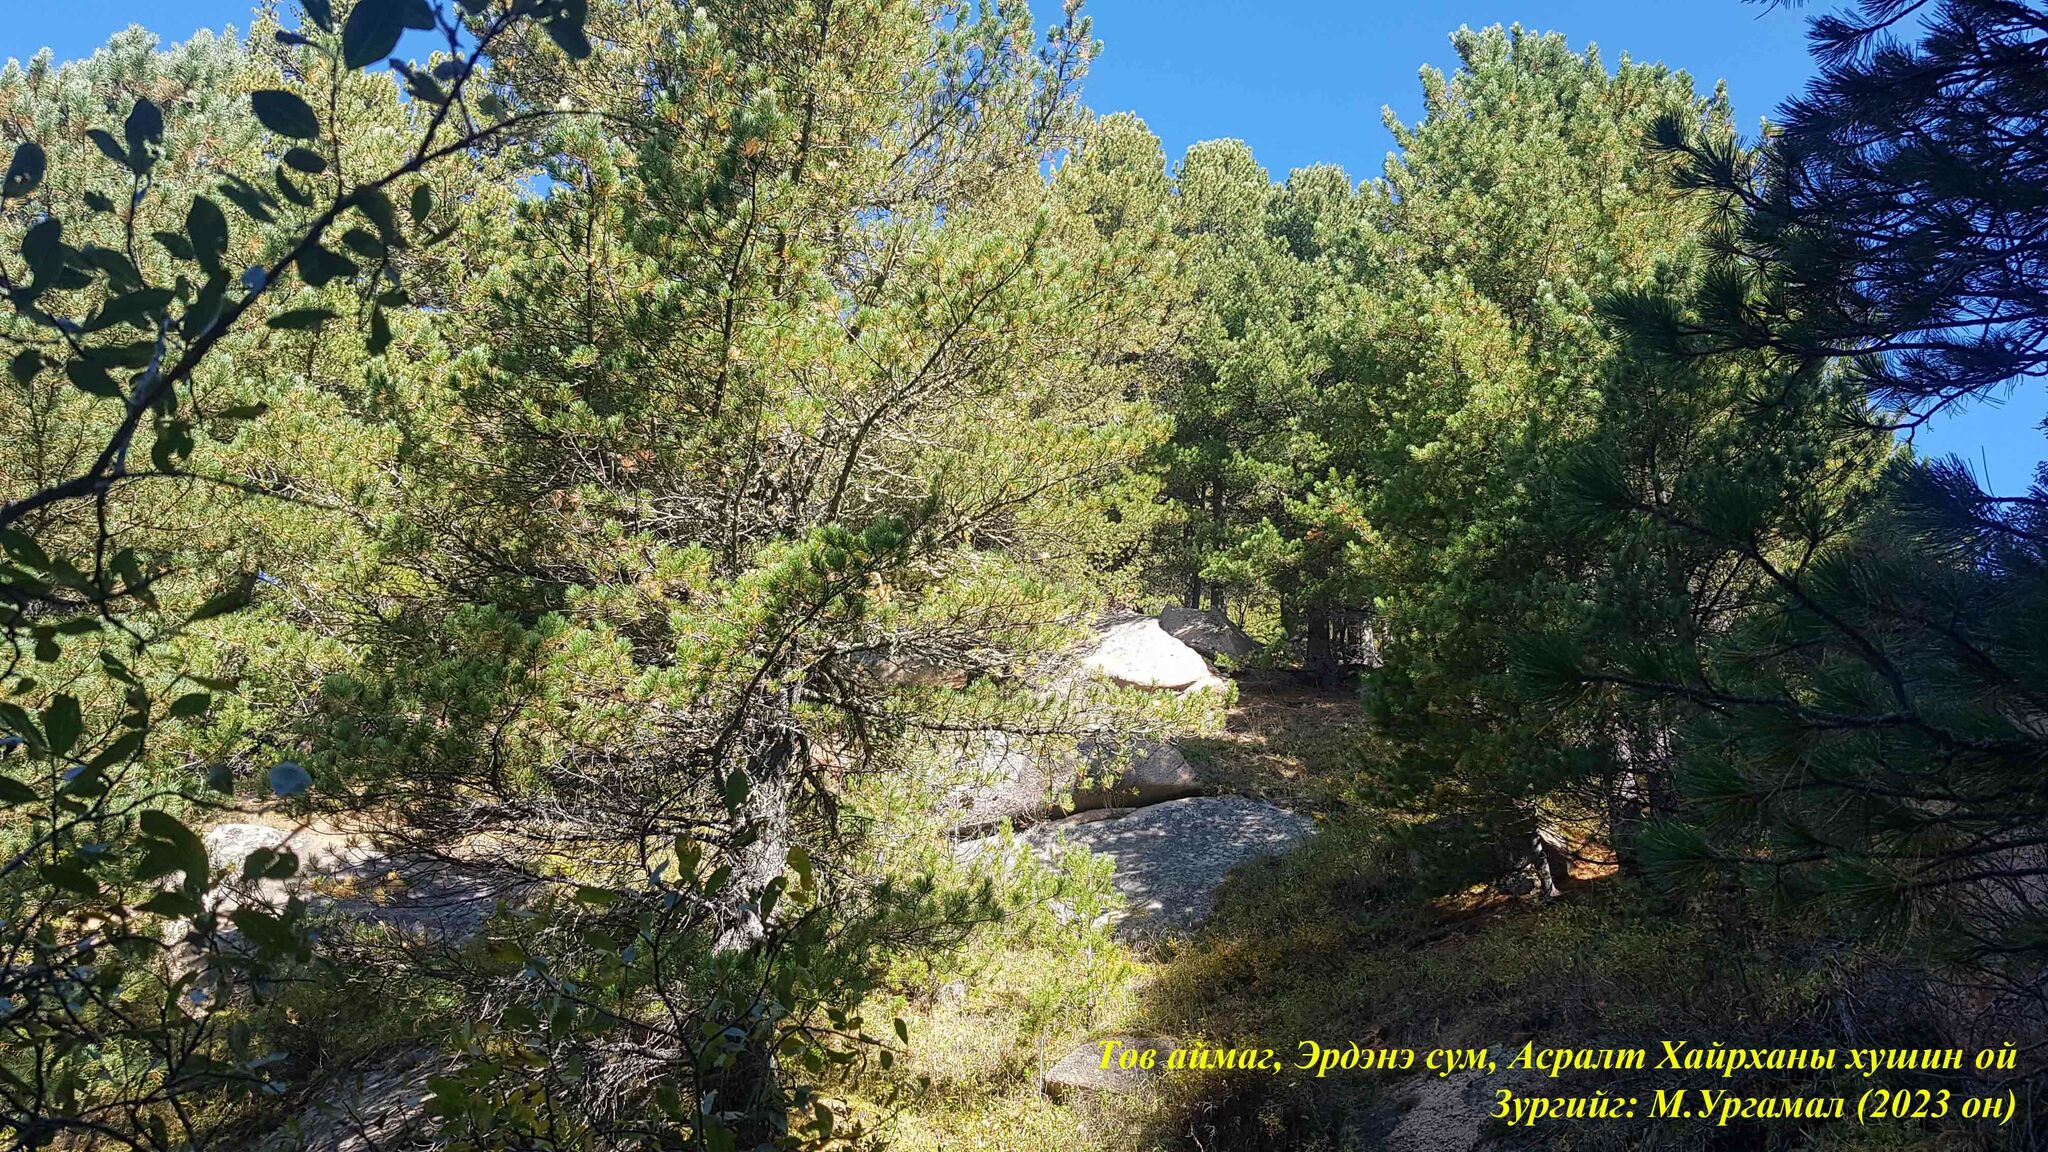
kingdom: Plantae
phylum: Tracheophyta
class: Pinopsida
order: Pinales
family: Pinaceae
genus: Pinus
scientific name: Pinus sibirica
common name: Siberian pine
